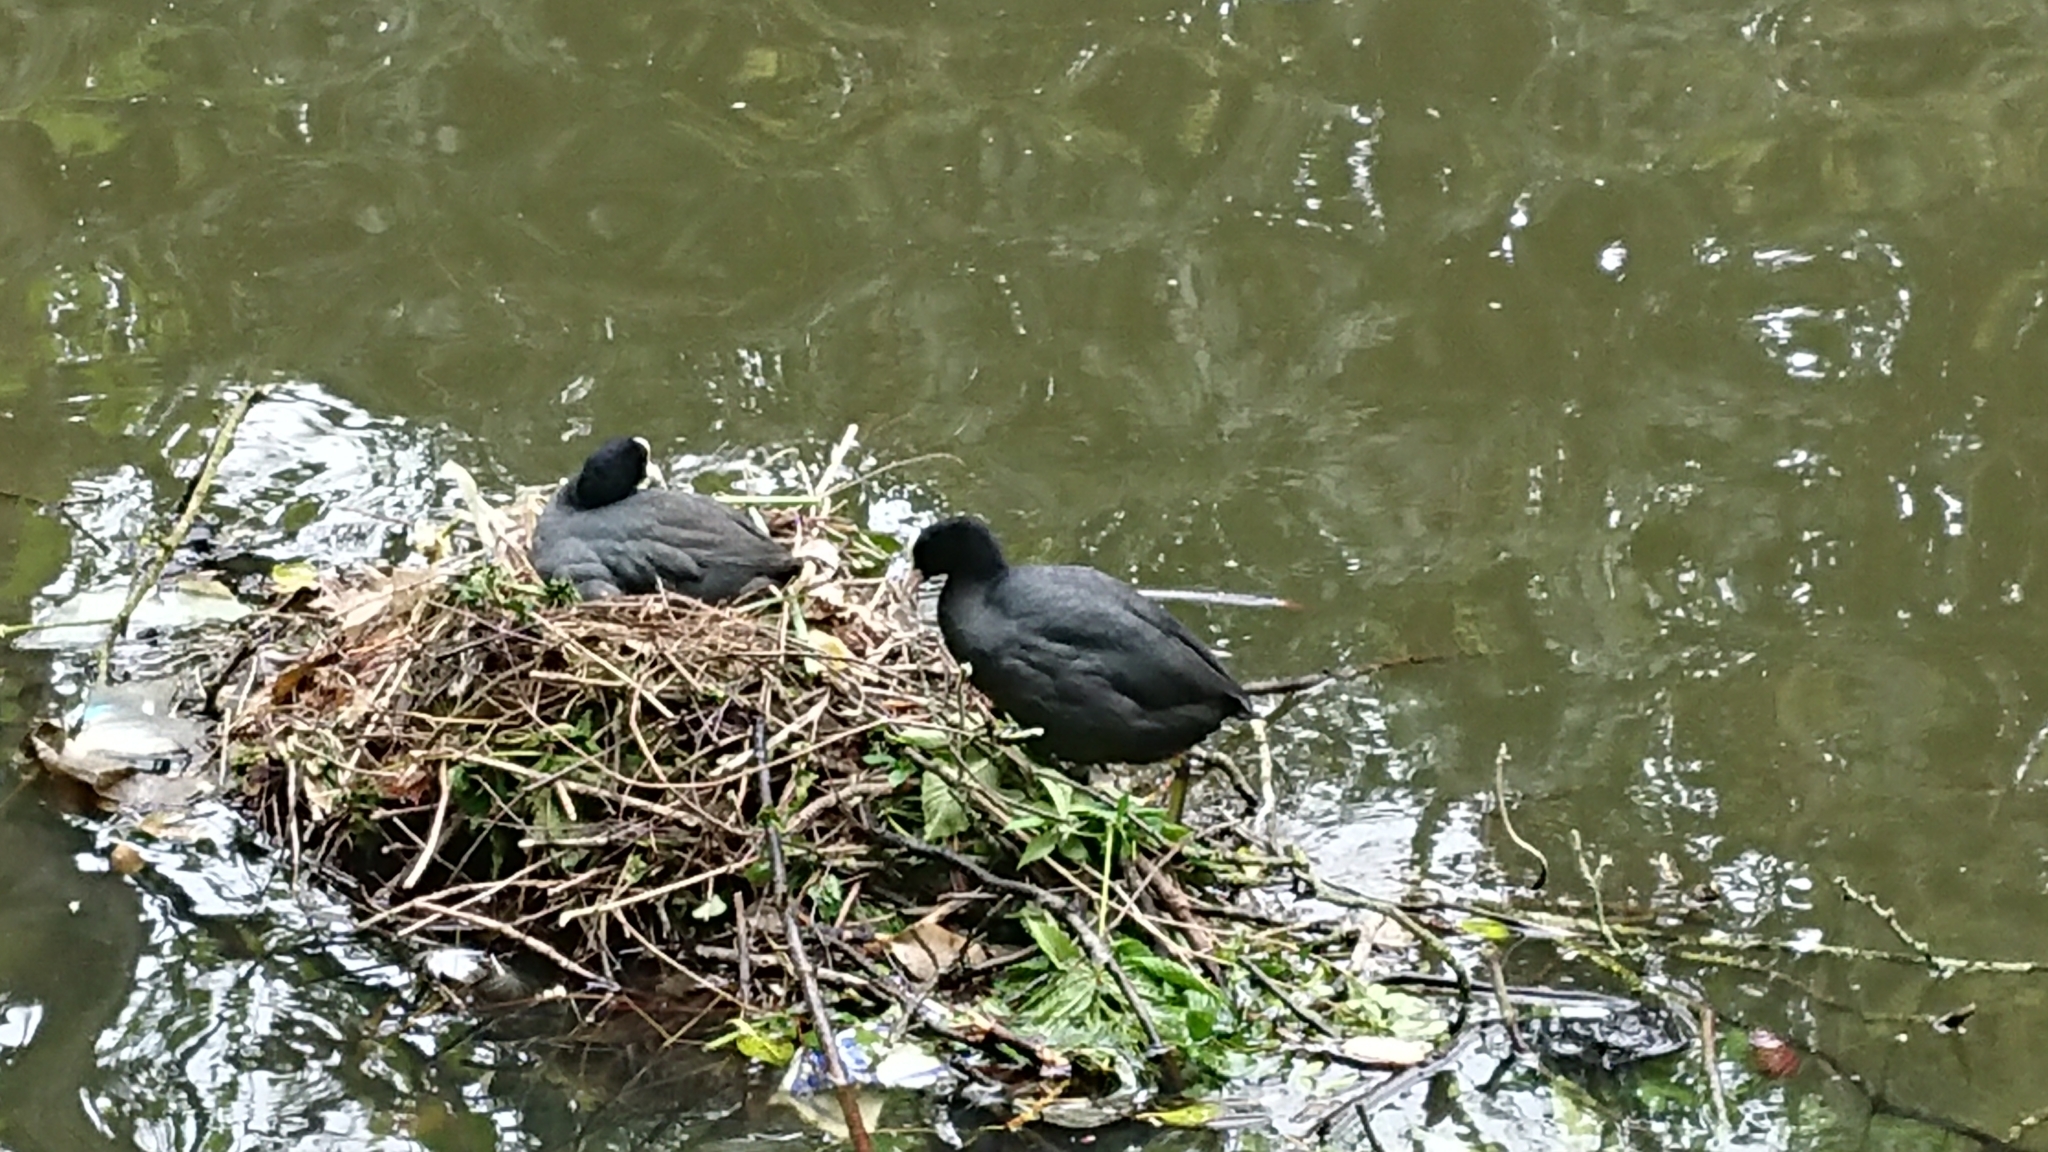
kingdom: Animalia
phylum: Chordata
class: Aves
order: Gruiformes
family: Rallidae
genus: Fulica
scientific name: Fulica atra
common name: Eurasian coot
